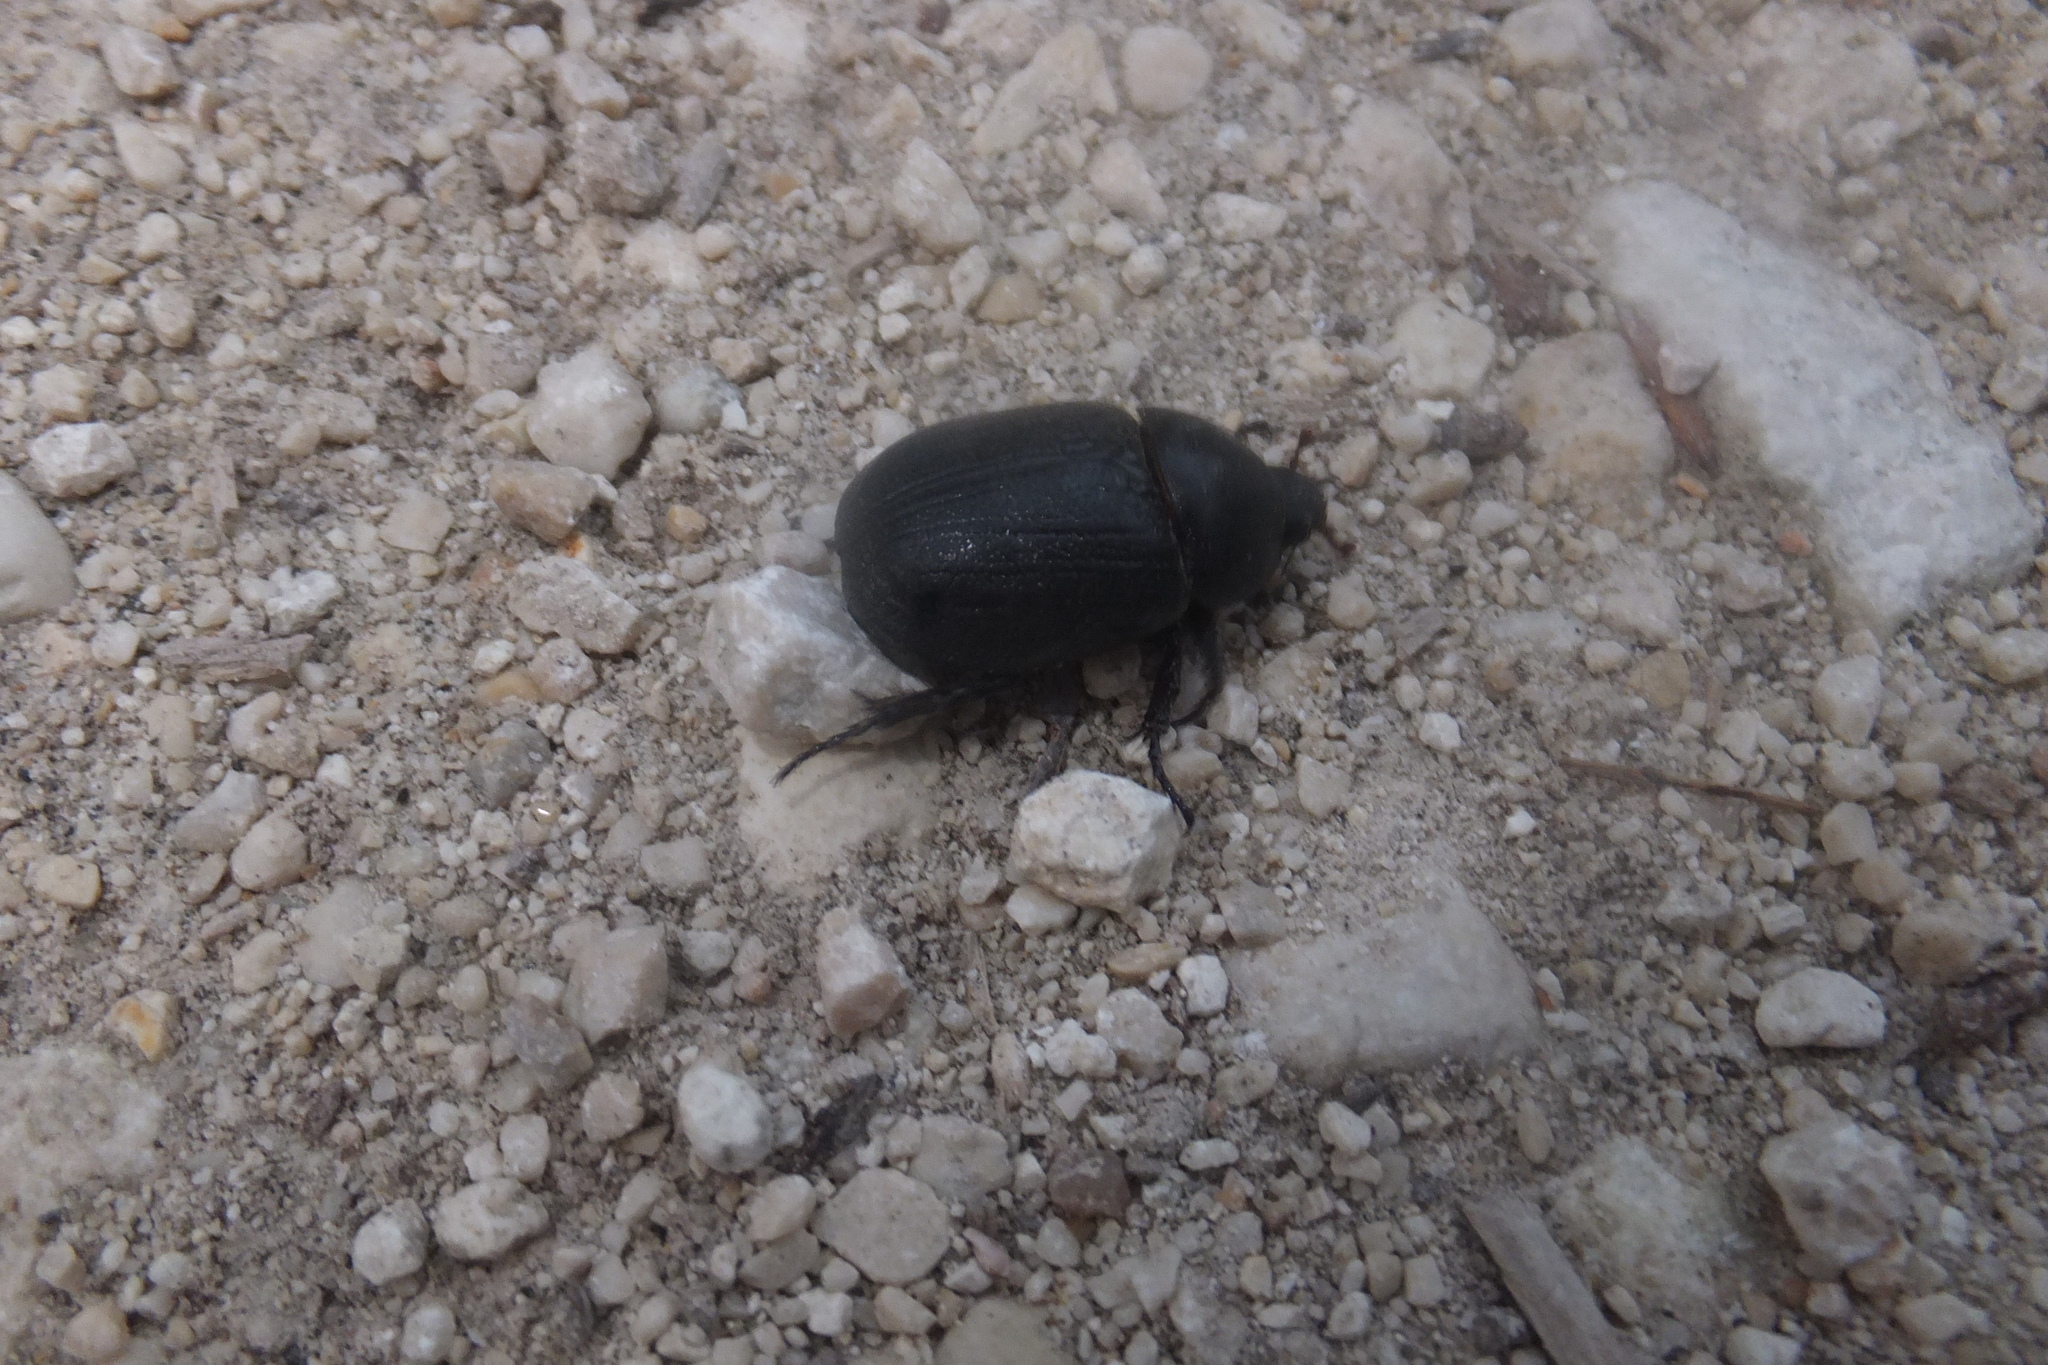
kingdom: Animalia
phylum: Arthropoda
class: Insecta
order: Coleoptera
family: Scarabaeidae
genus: Pentodon
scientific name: Pentodon bidens
